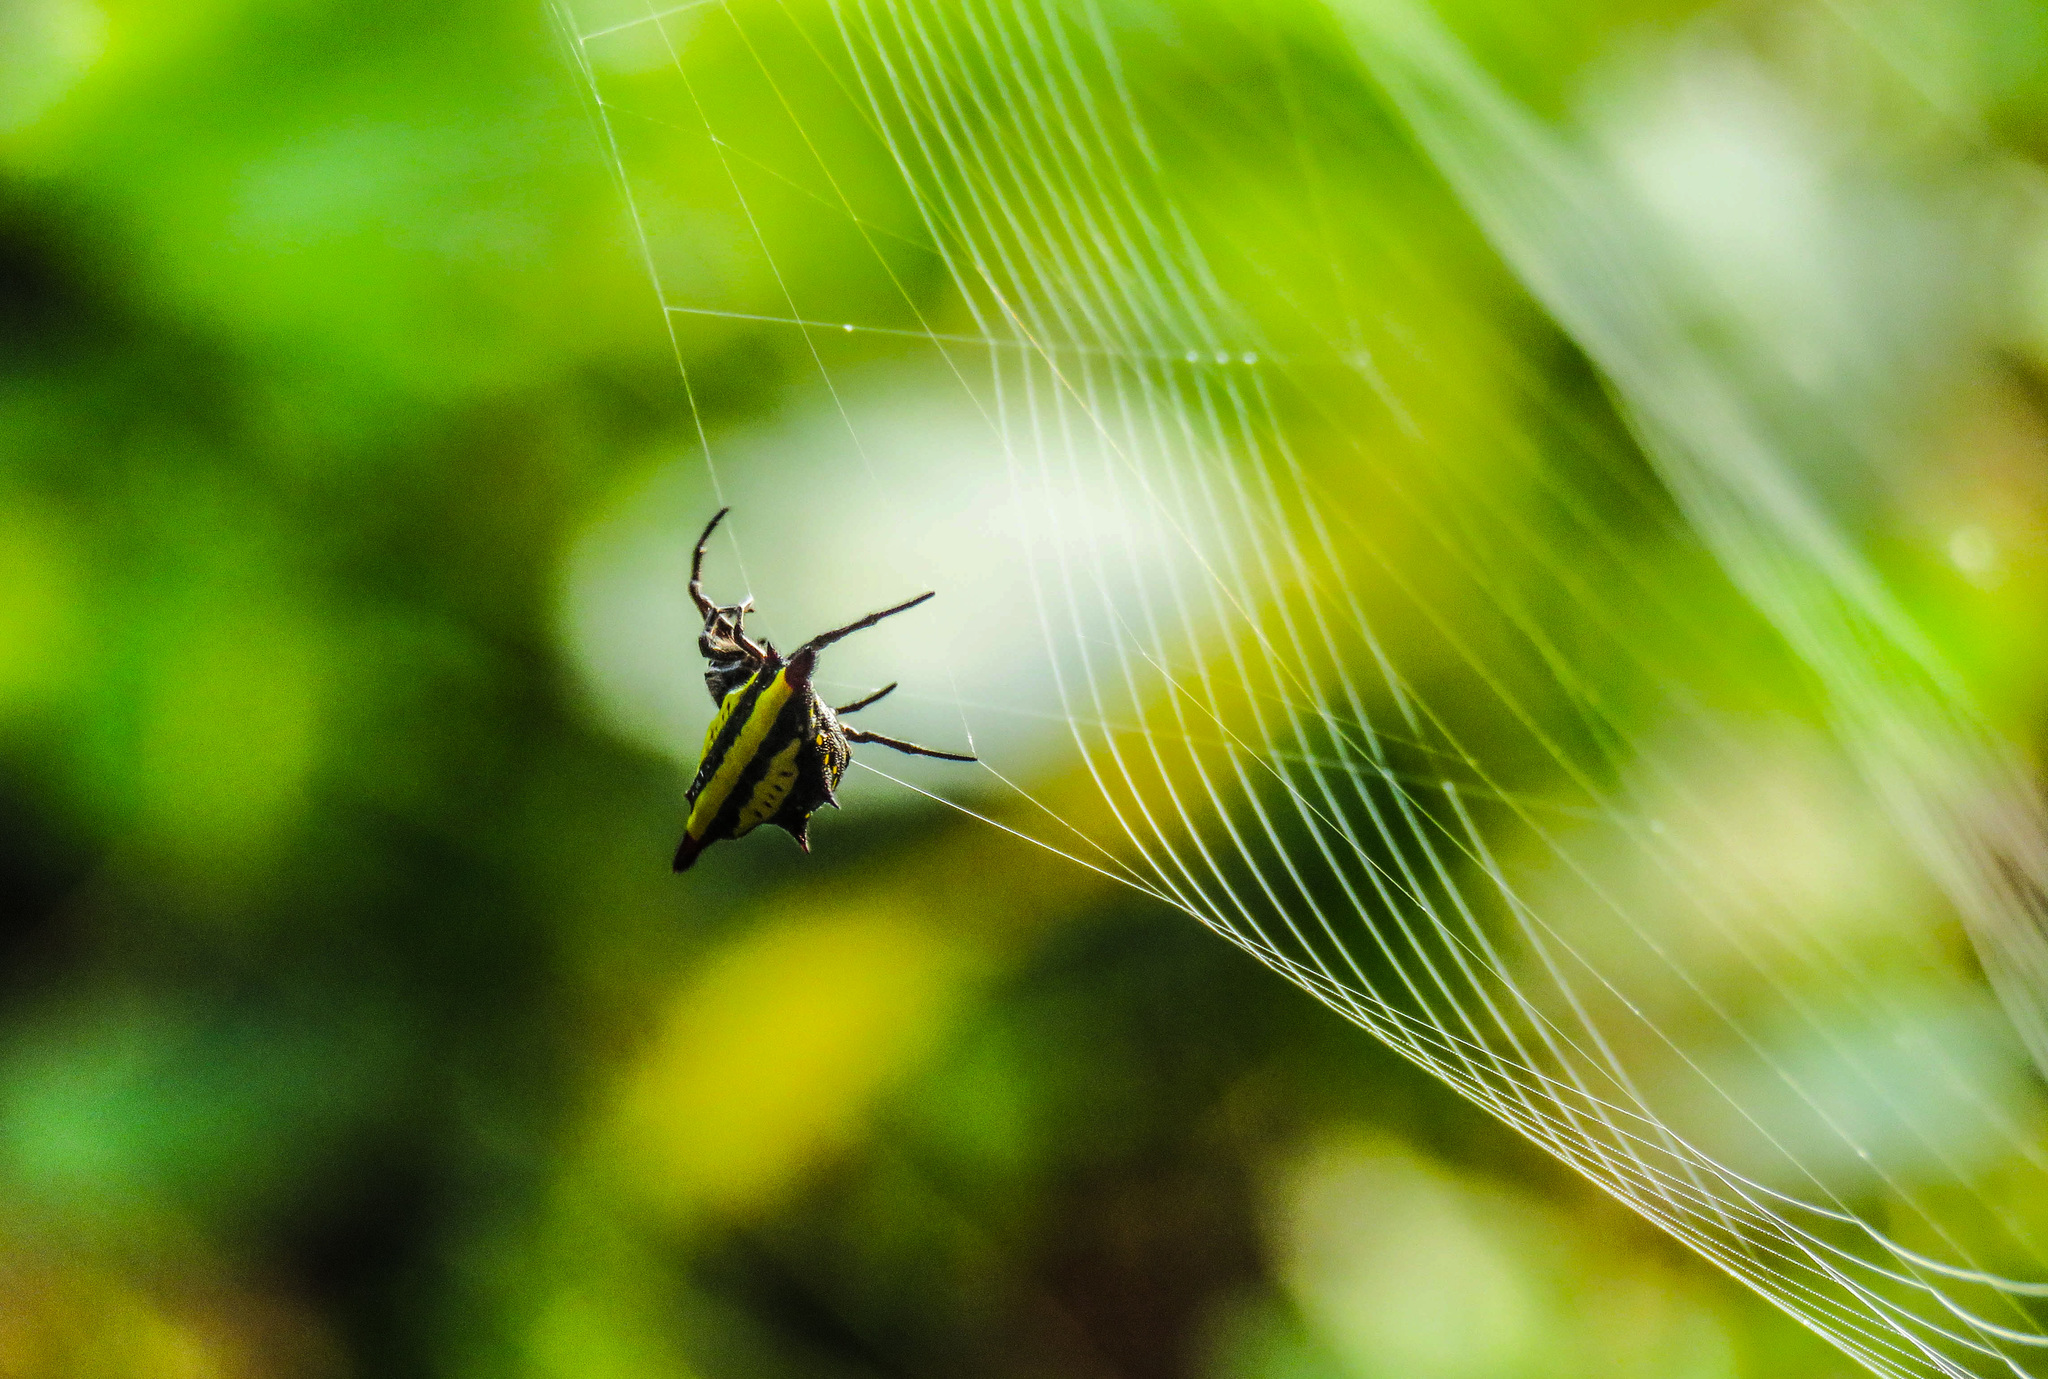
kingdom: Animalia
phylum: Arthropoda
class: Arachnida
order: Araneae
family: Araneidae
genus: Gasteracantha
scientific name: Gasteracantha diadesmia
